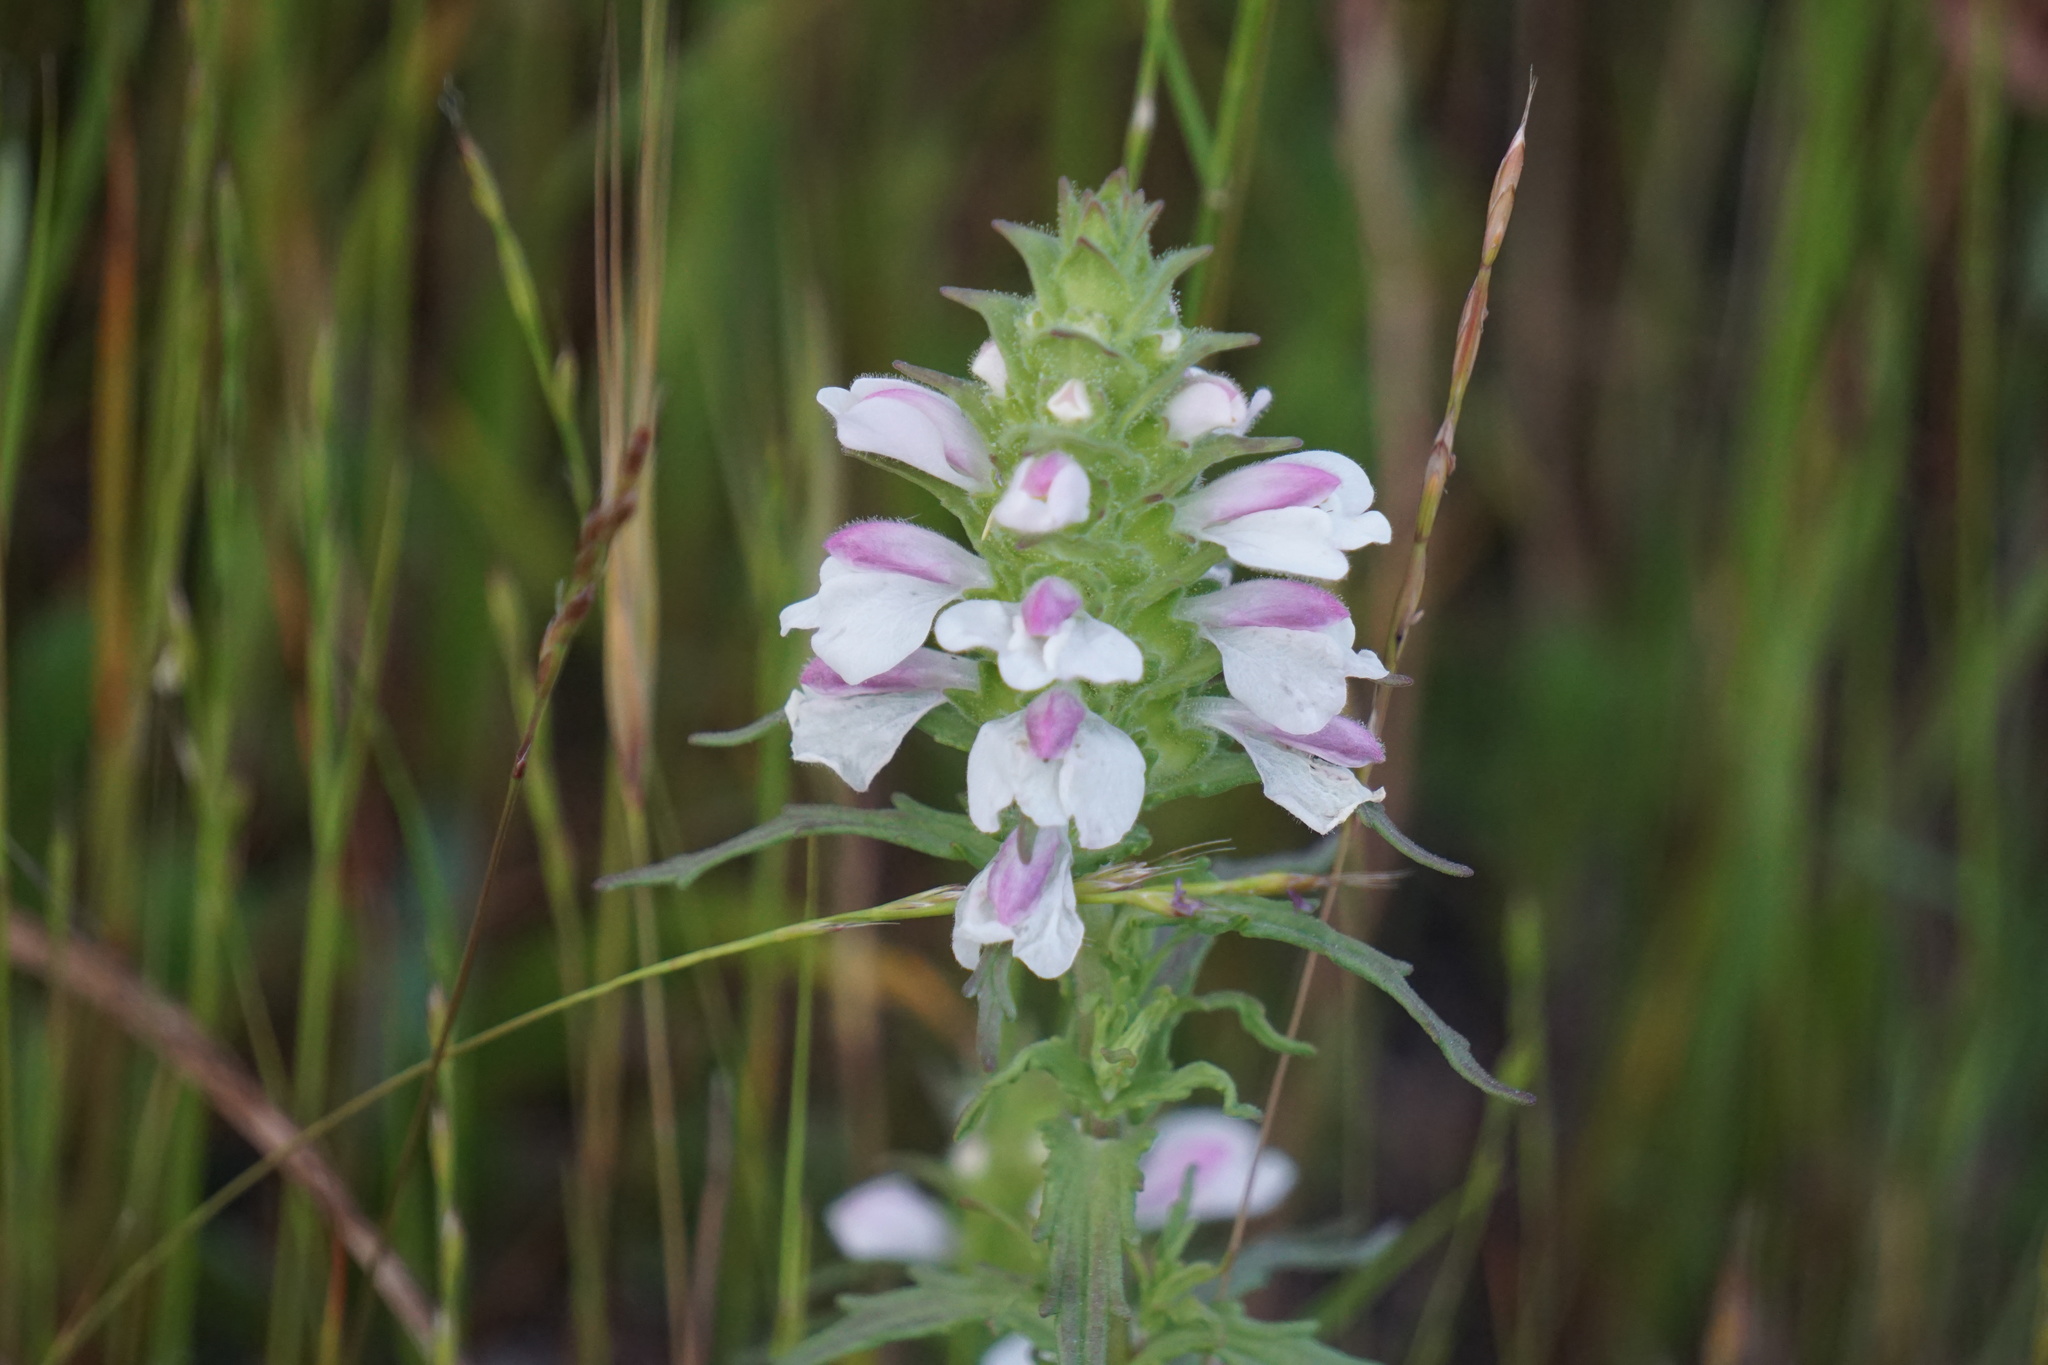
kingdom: Plantae
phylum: Tracheophyta
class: Magnoliopsida
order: Lamiales
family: Orobanchaceae
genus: Bellardia
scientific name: Bellardia trixago
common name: Mediterranean lineseed
